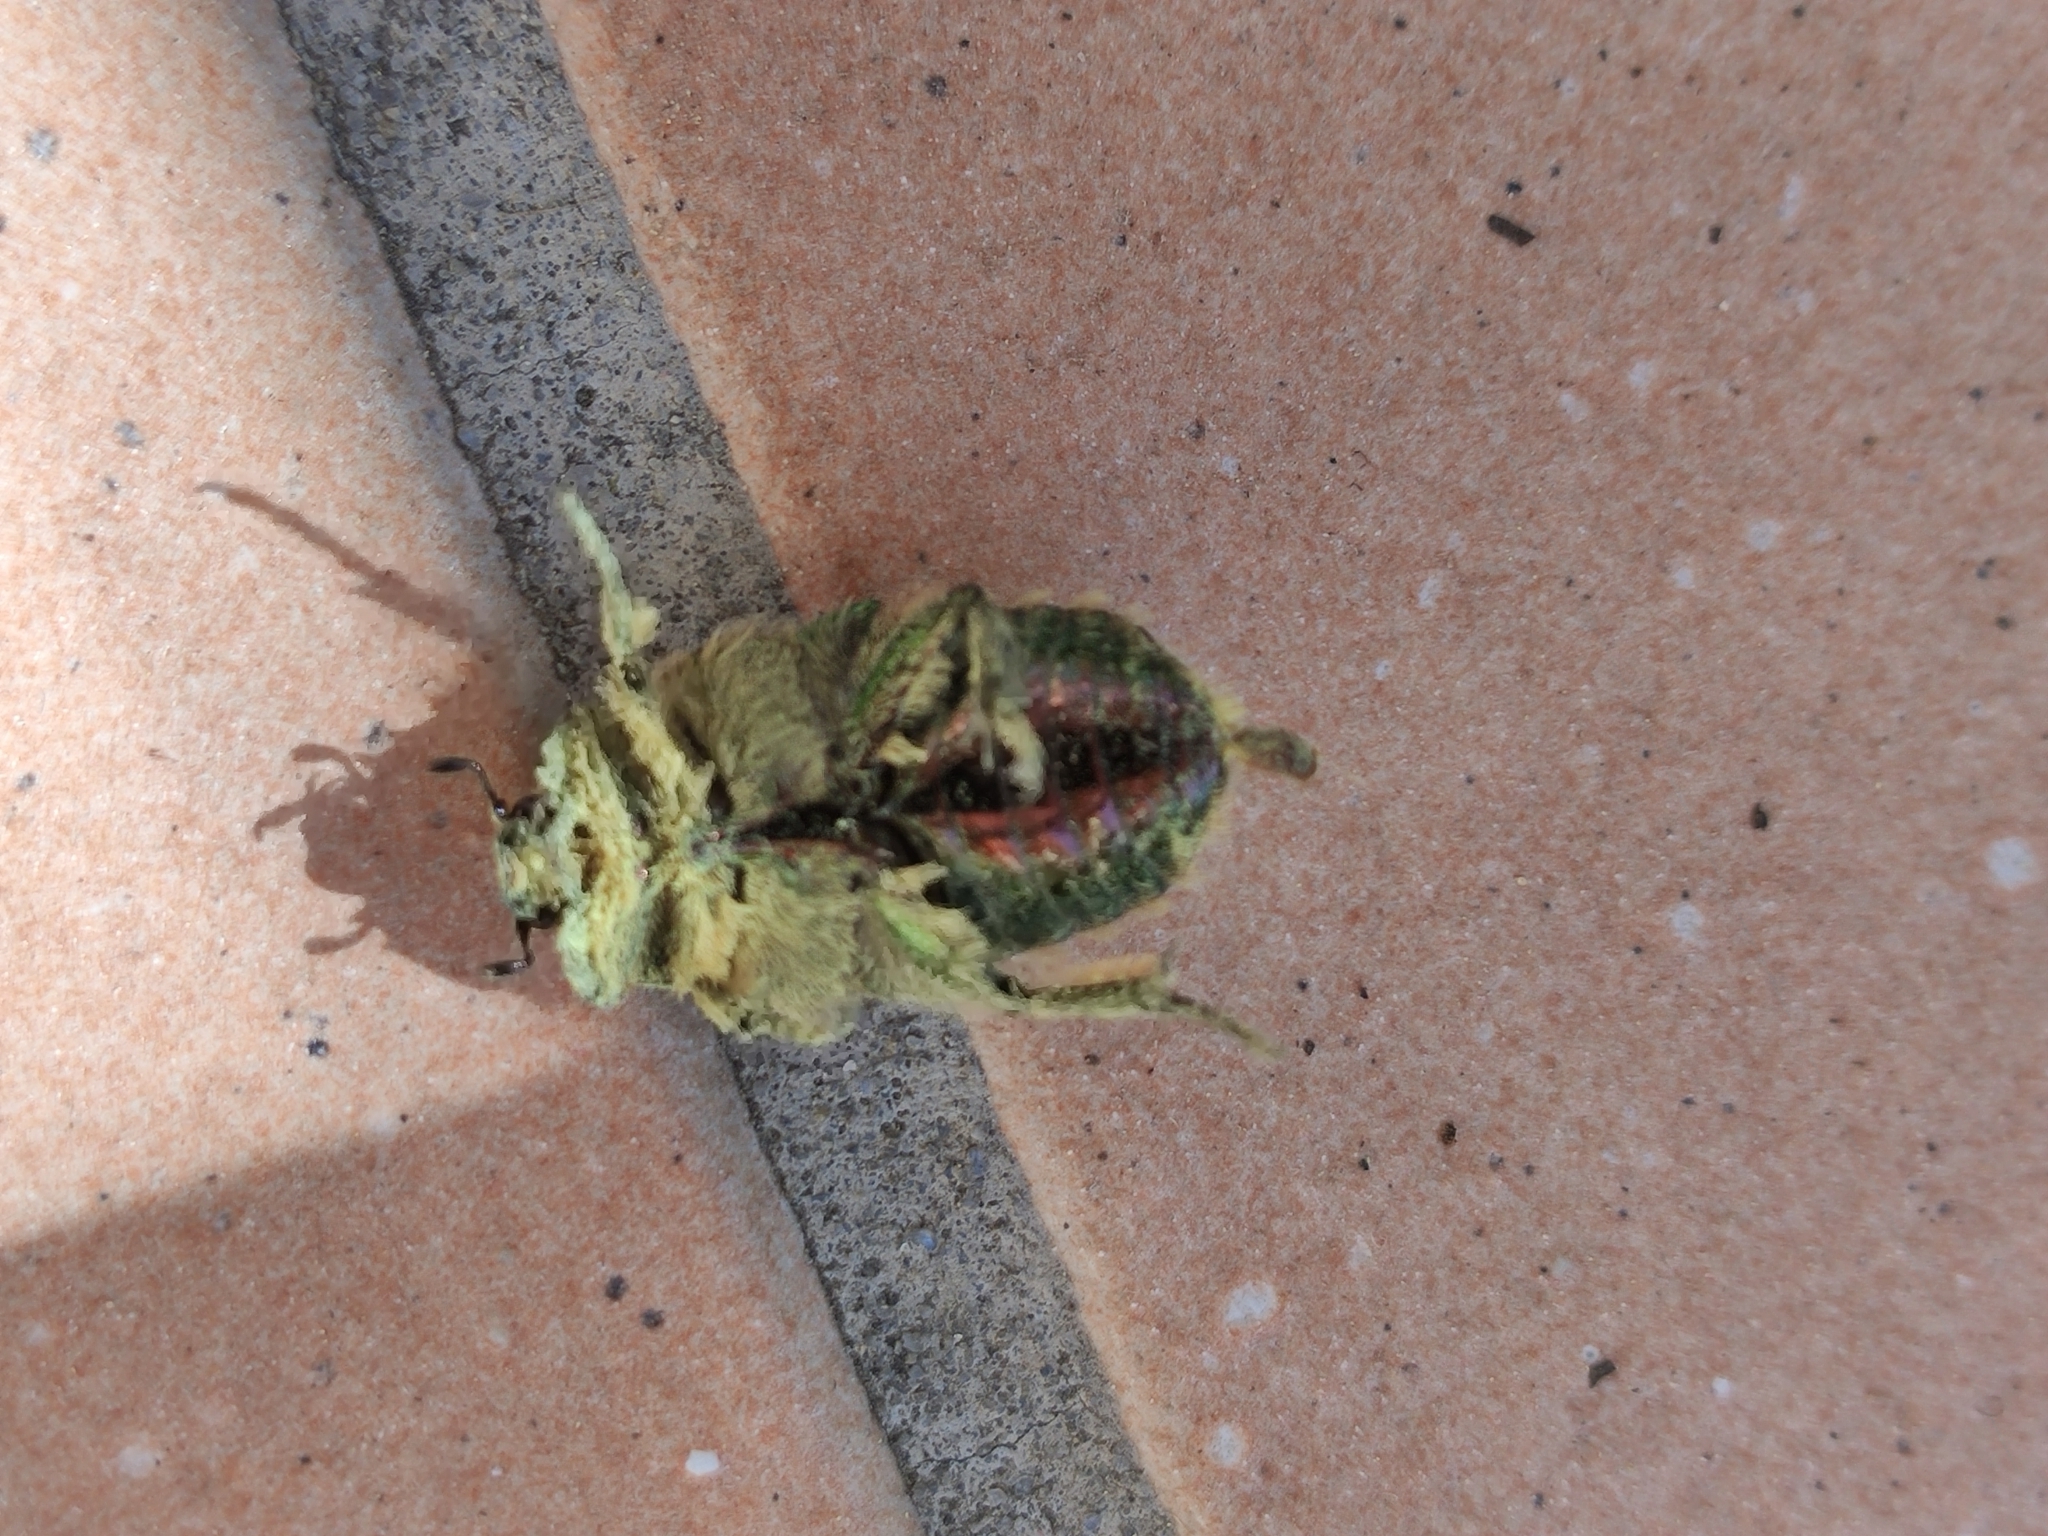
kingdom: Animalia
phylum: Arthropoda
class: Insecta
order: Coleoptera
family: Scarabaeidae
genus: Cetonia
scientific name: Cetonia aurata
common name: Rose chafer
